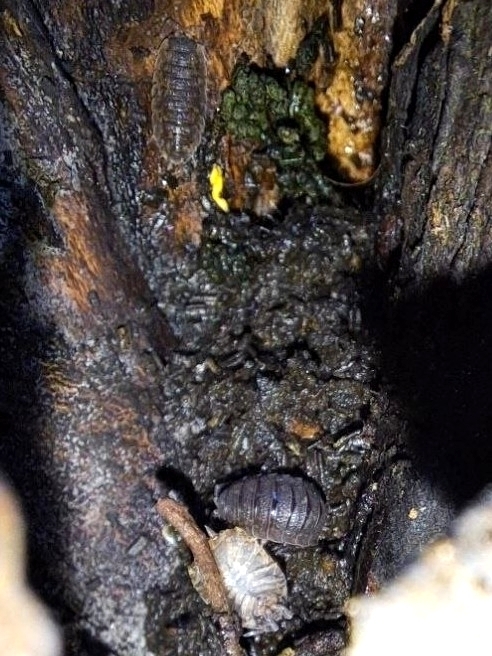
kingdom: Animalia
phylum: Arthropoda
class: Malacostraca
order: Isopoda
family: Porcellionidae
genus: Porcellio
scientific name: Porcellio scaber
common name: Common rough woodlouse
